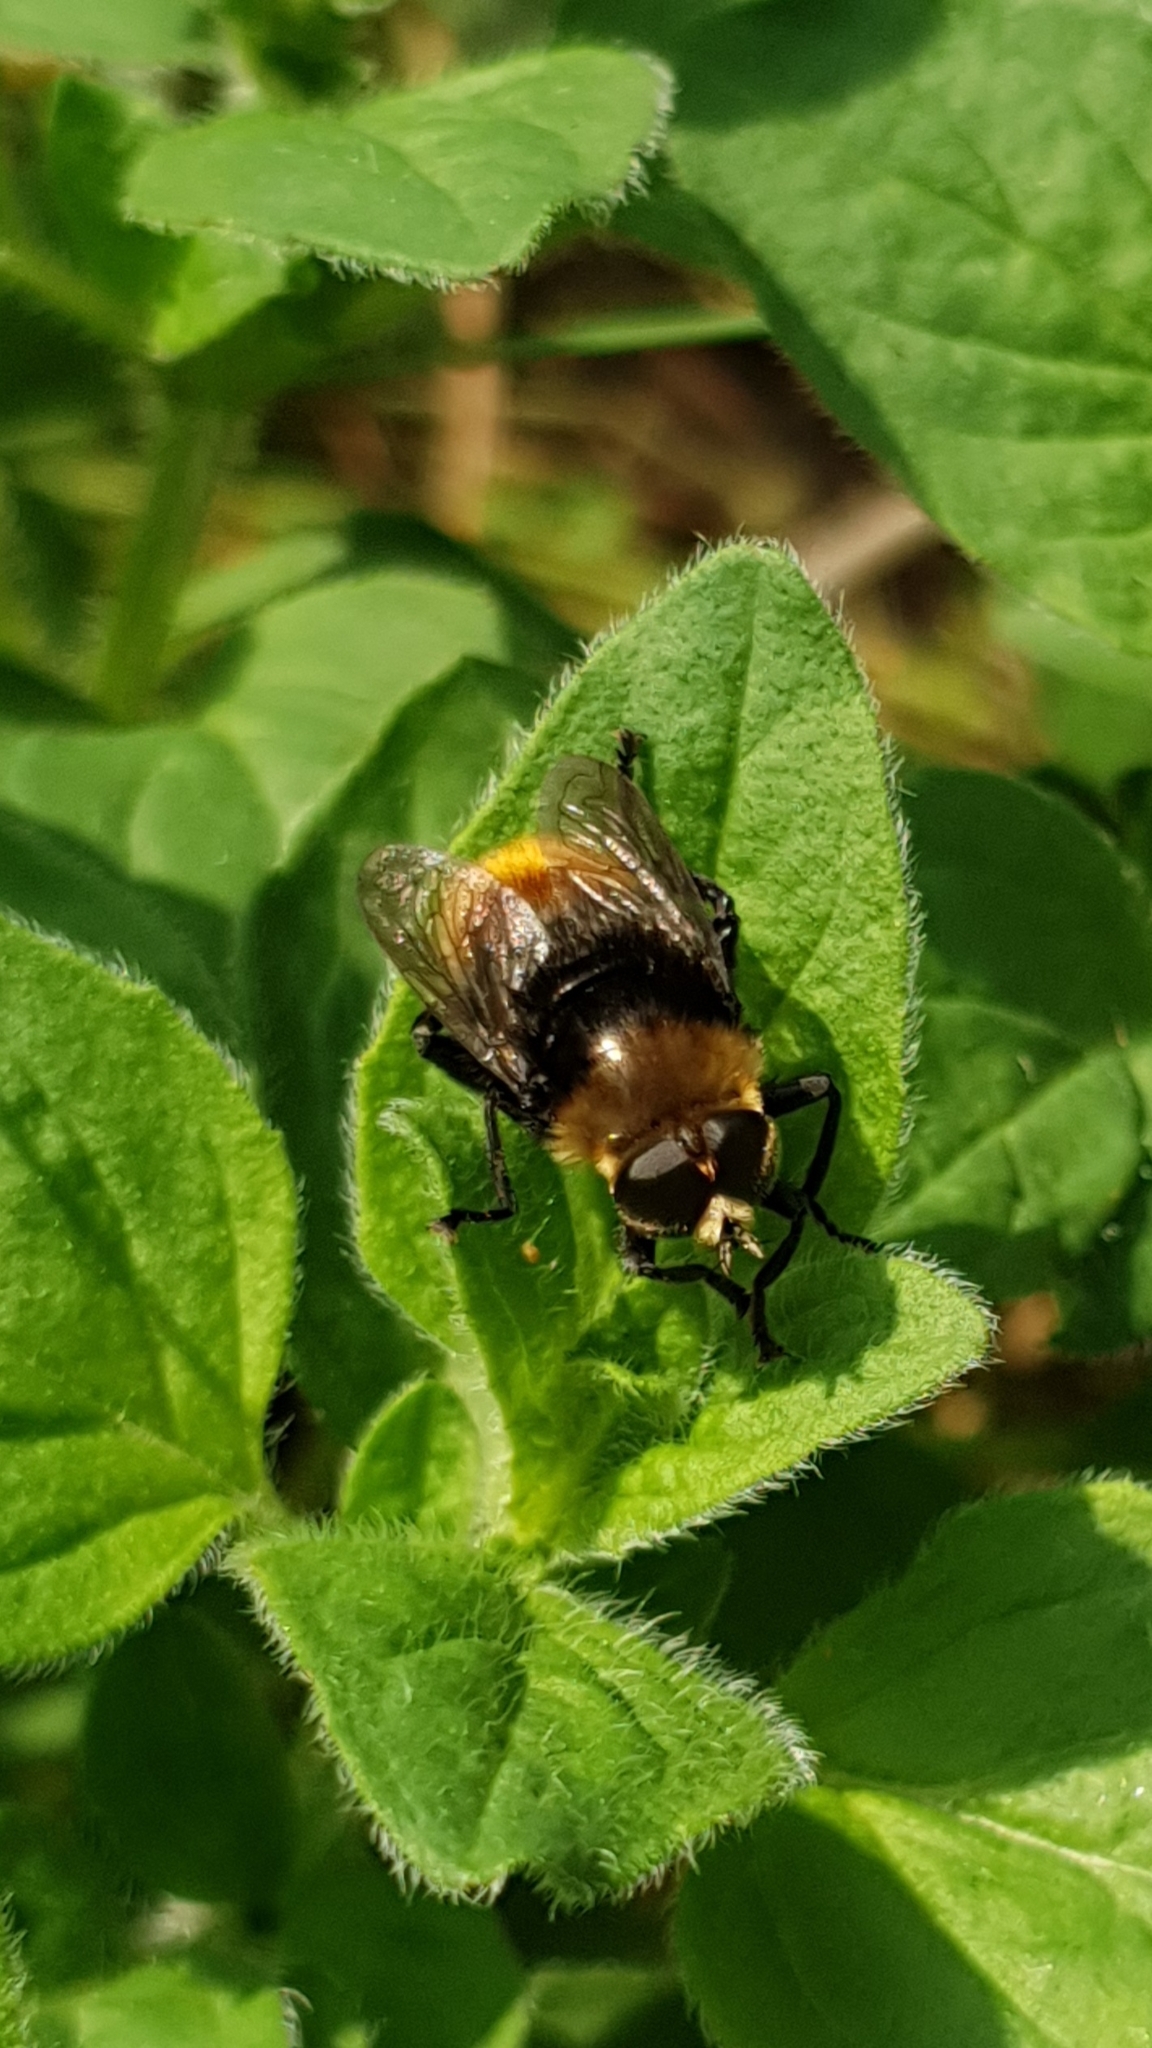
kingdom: Animalia
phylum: Arthropoda
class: Insecta
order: Diptera
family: Syrphidae
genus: Merodon
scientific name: Merodon equestris
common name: Greater bulb-fly
